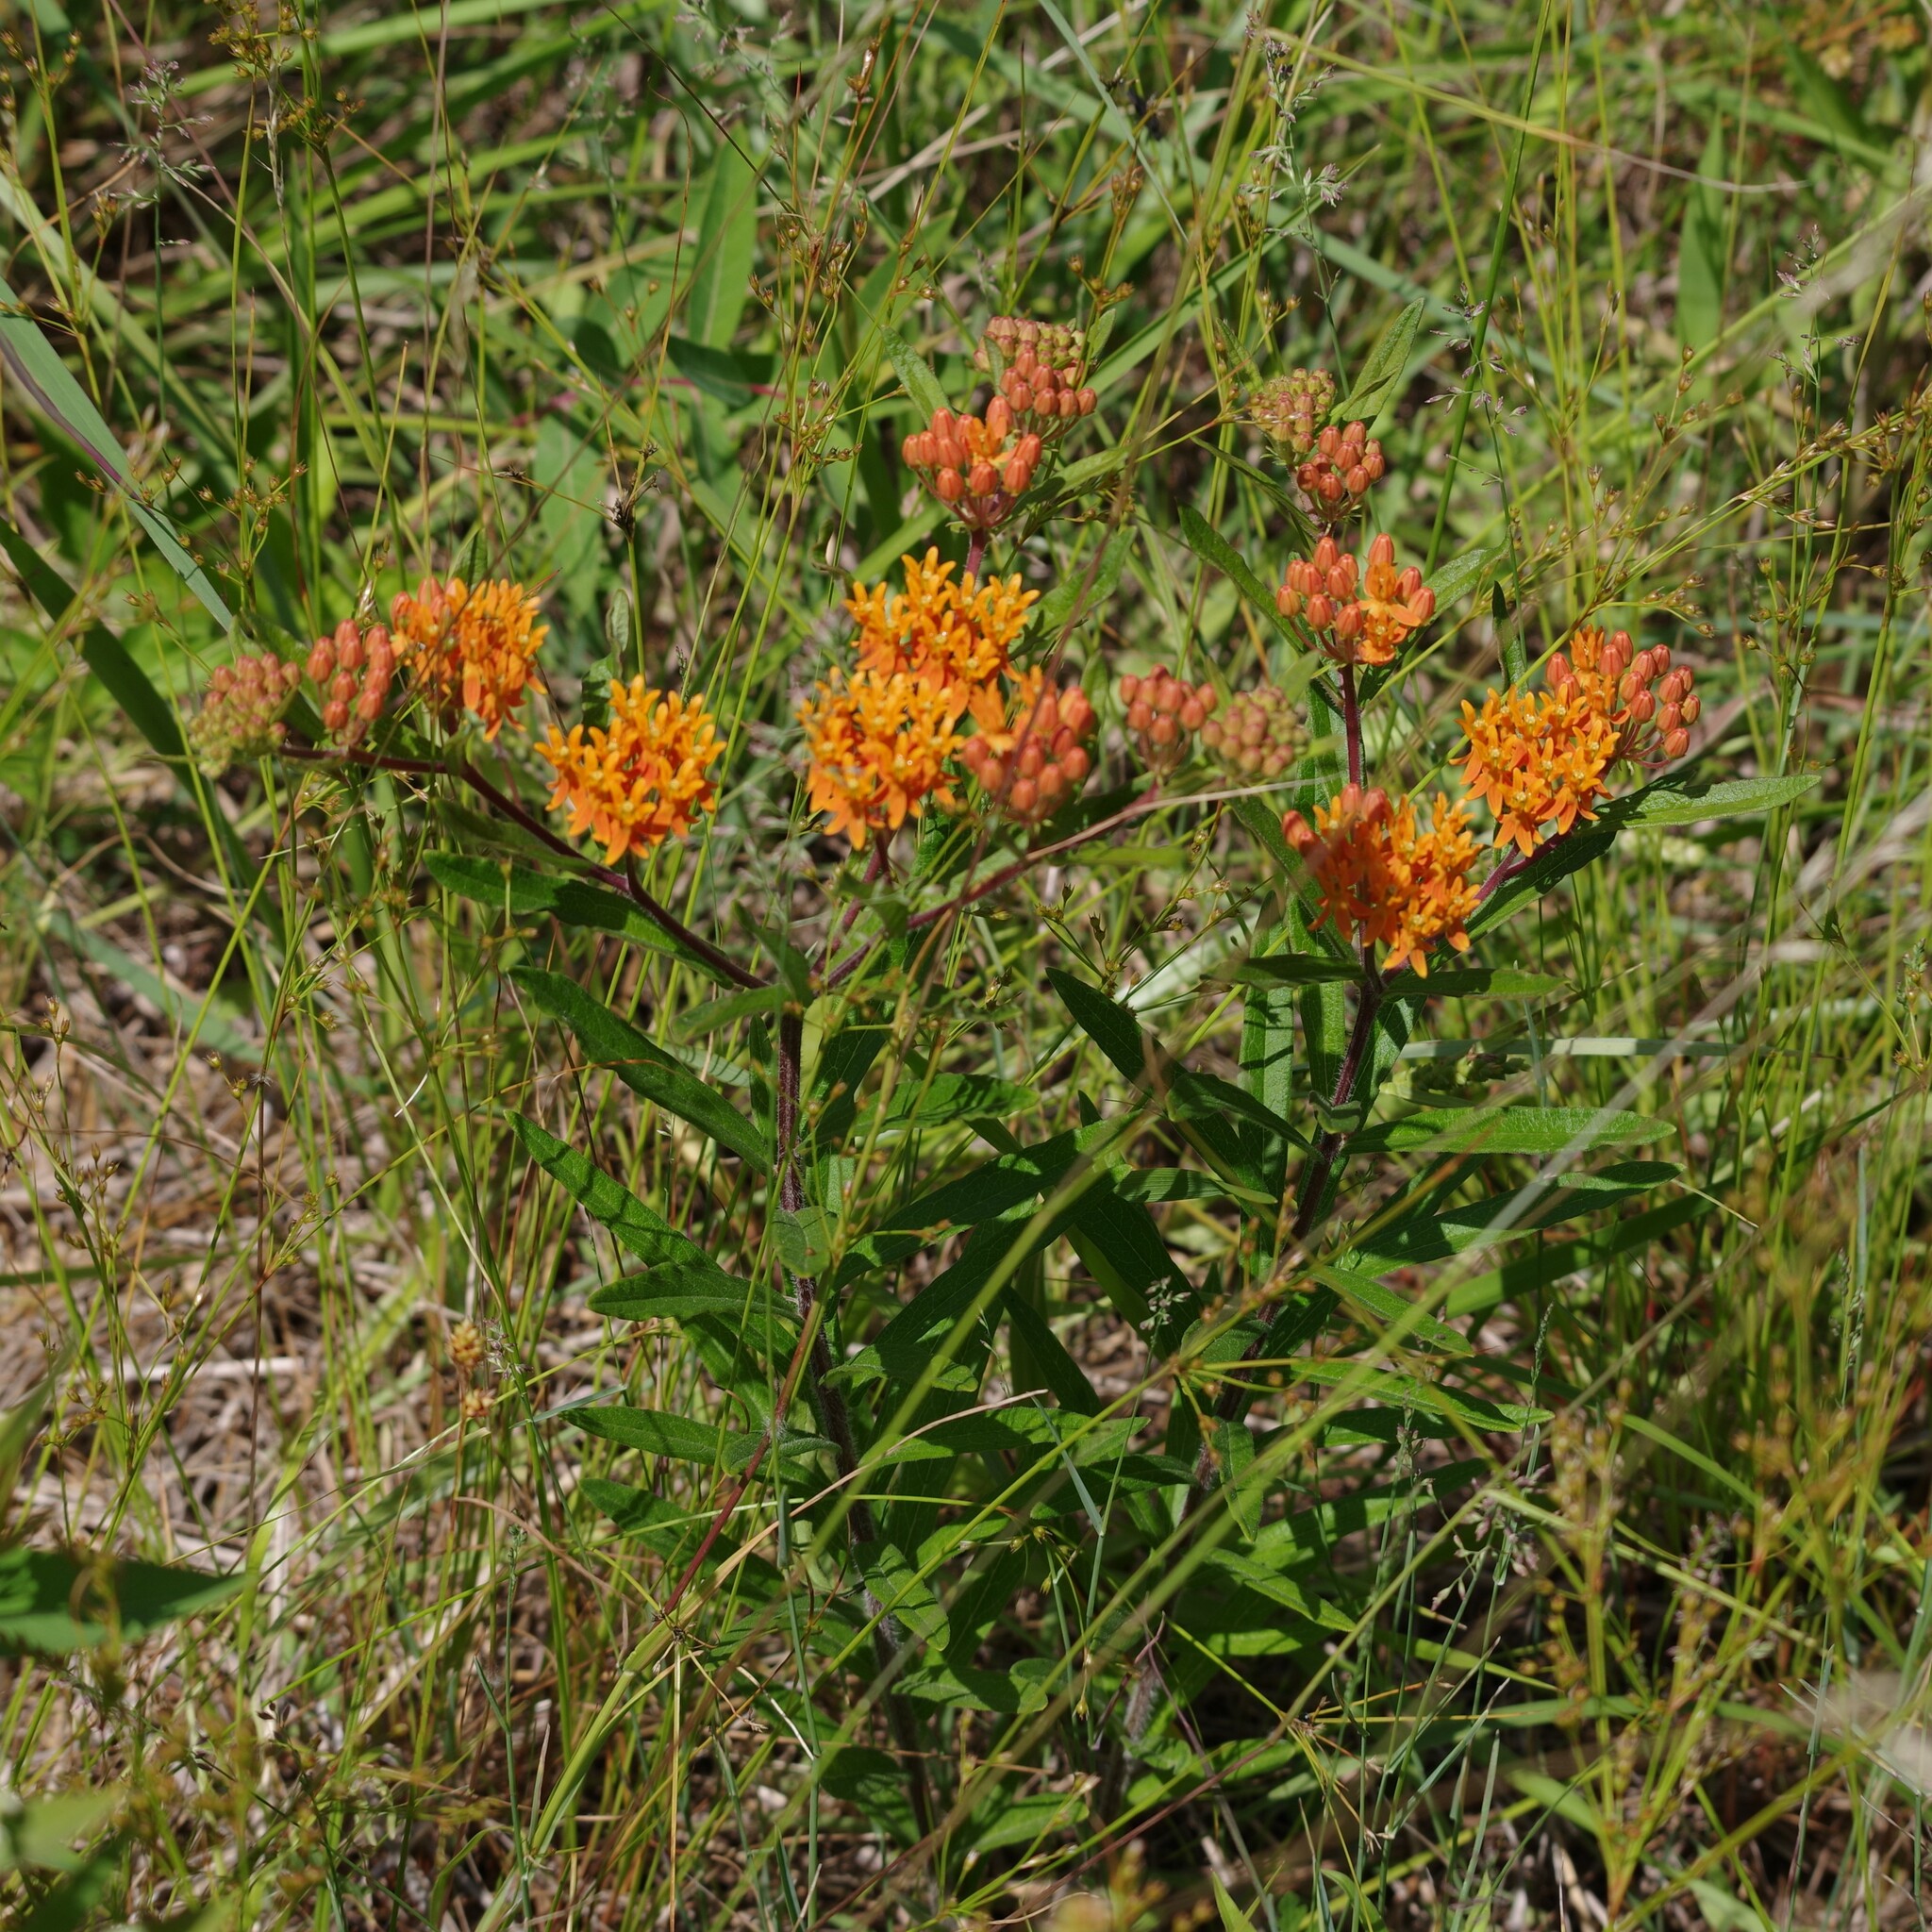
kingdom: Plantae
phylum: Tracheophyta
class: Magnoliopsida
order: Gentianales
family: Apocynaceae
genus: Asclepias
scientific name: Asclepias tuberosa
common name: Butterfly milkweed
